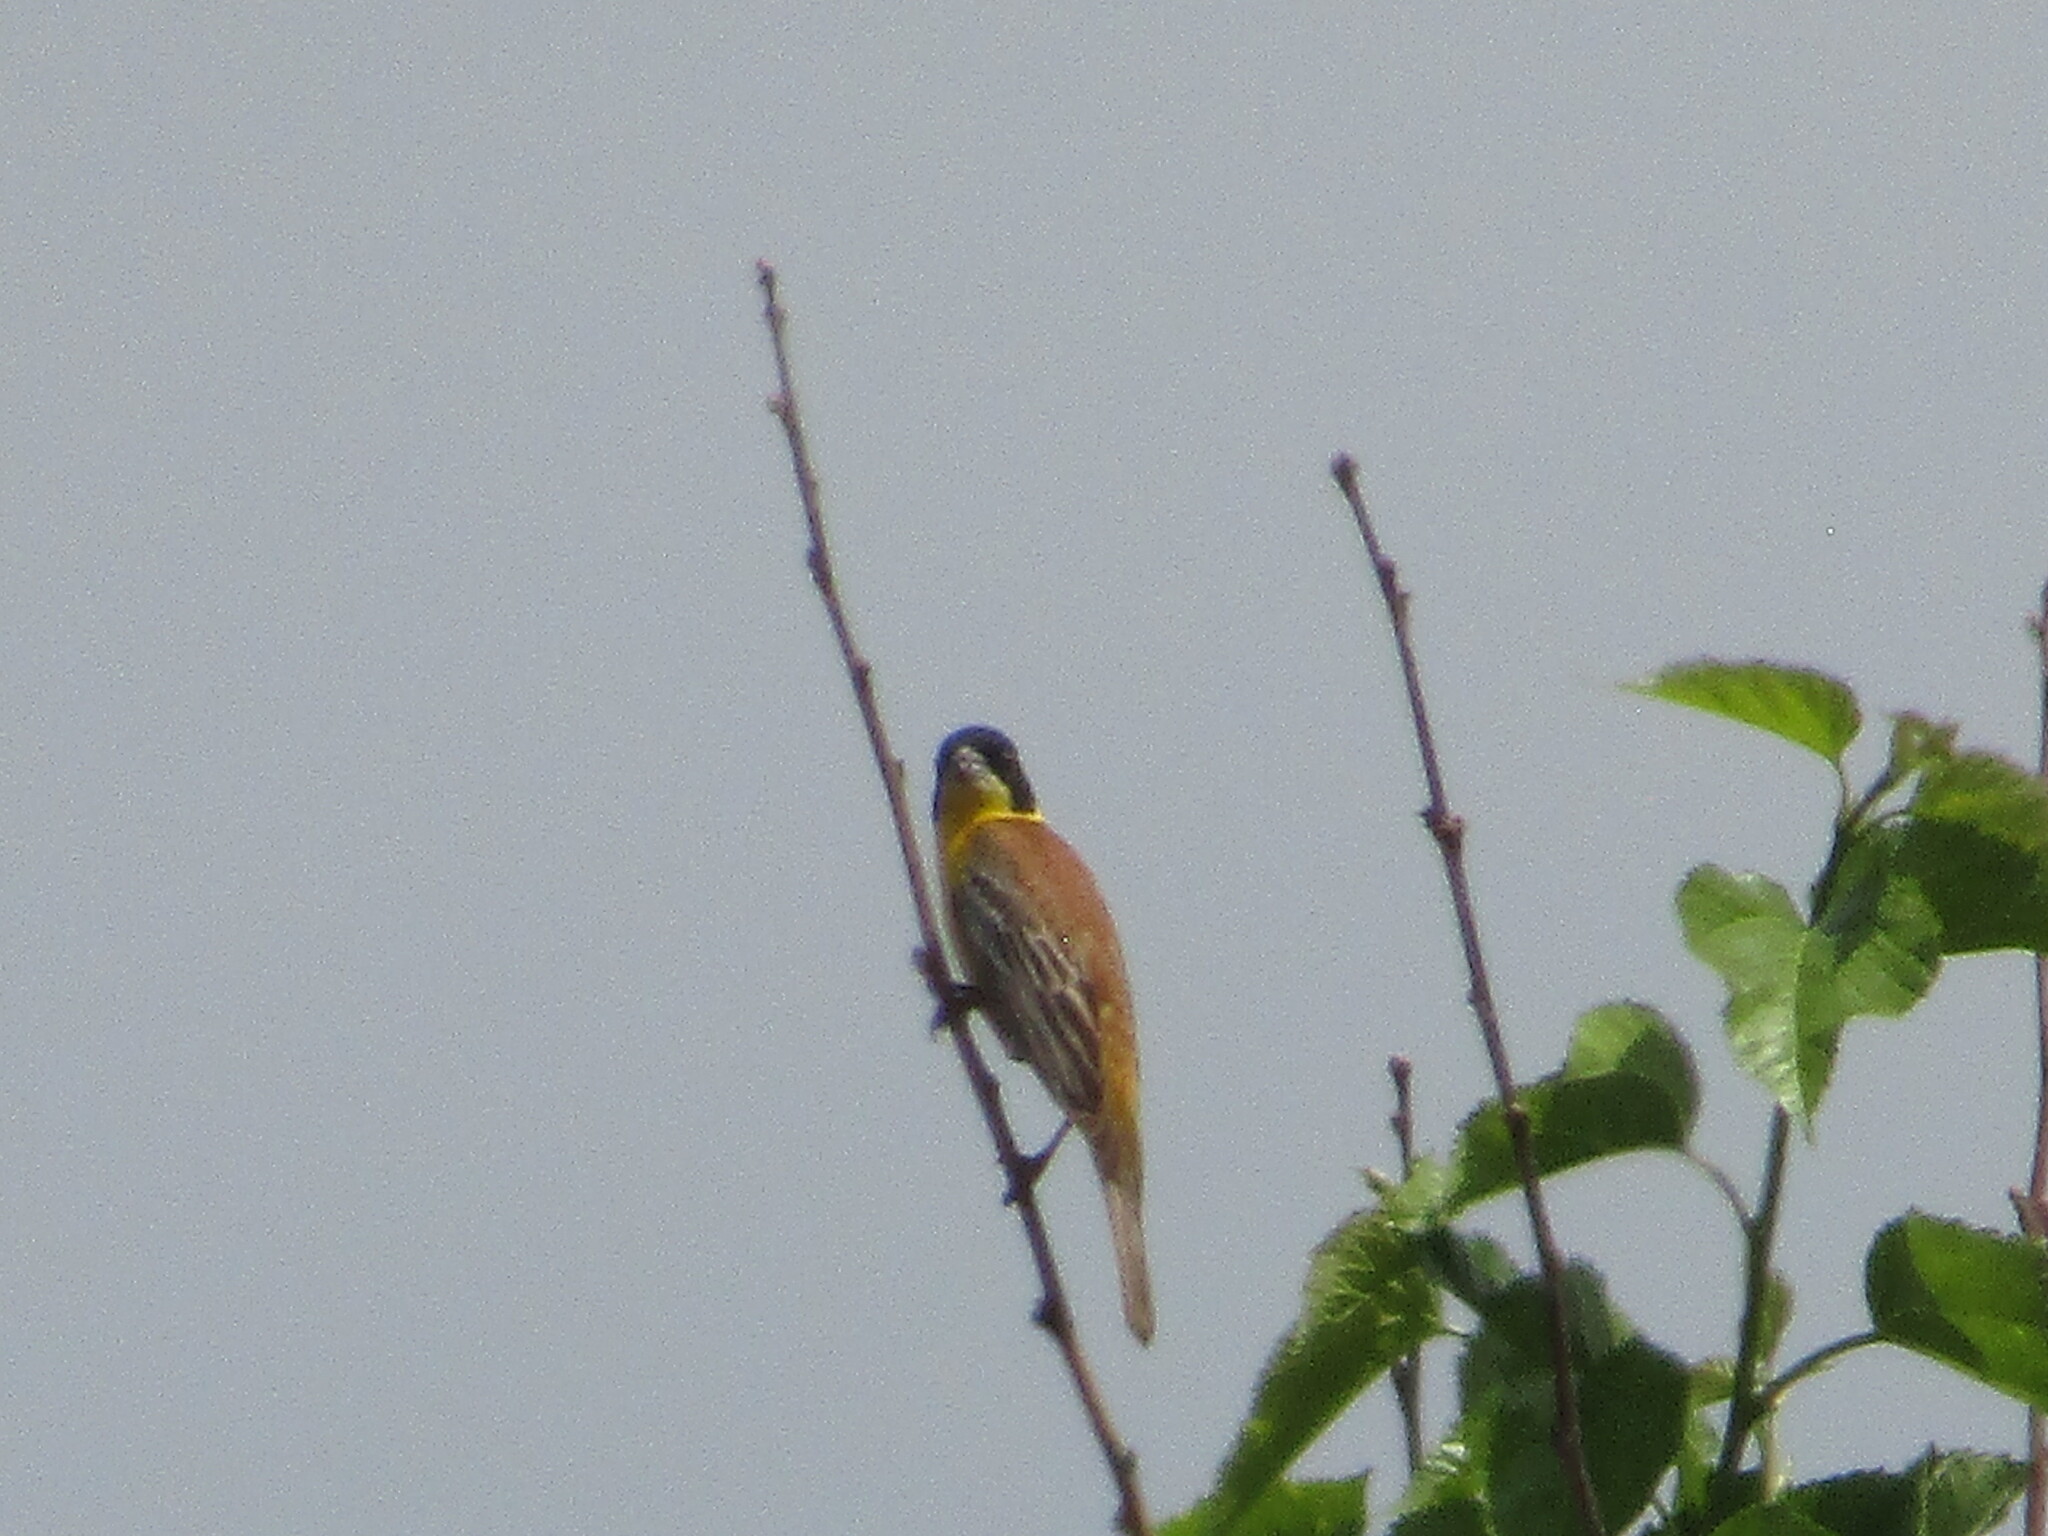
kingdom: Animalia
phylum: Chordata
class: Aves
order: Passeriformes
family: Emberizidae
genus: Emberiza
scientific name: Emberiza melanocephala
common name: Black-headed bunting
